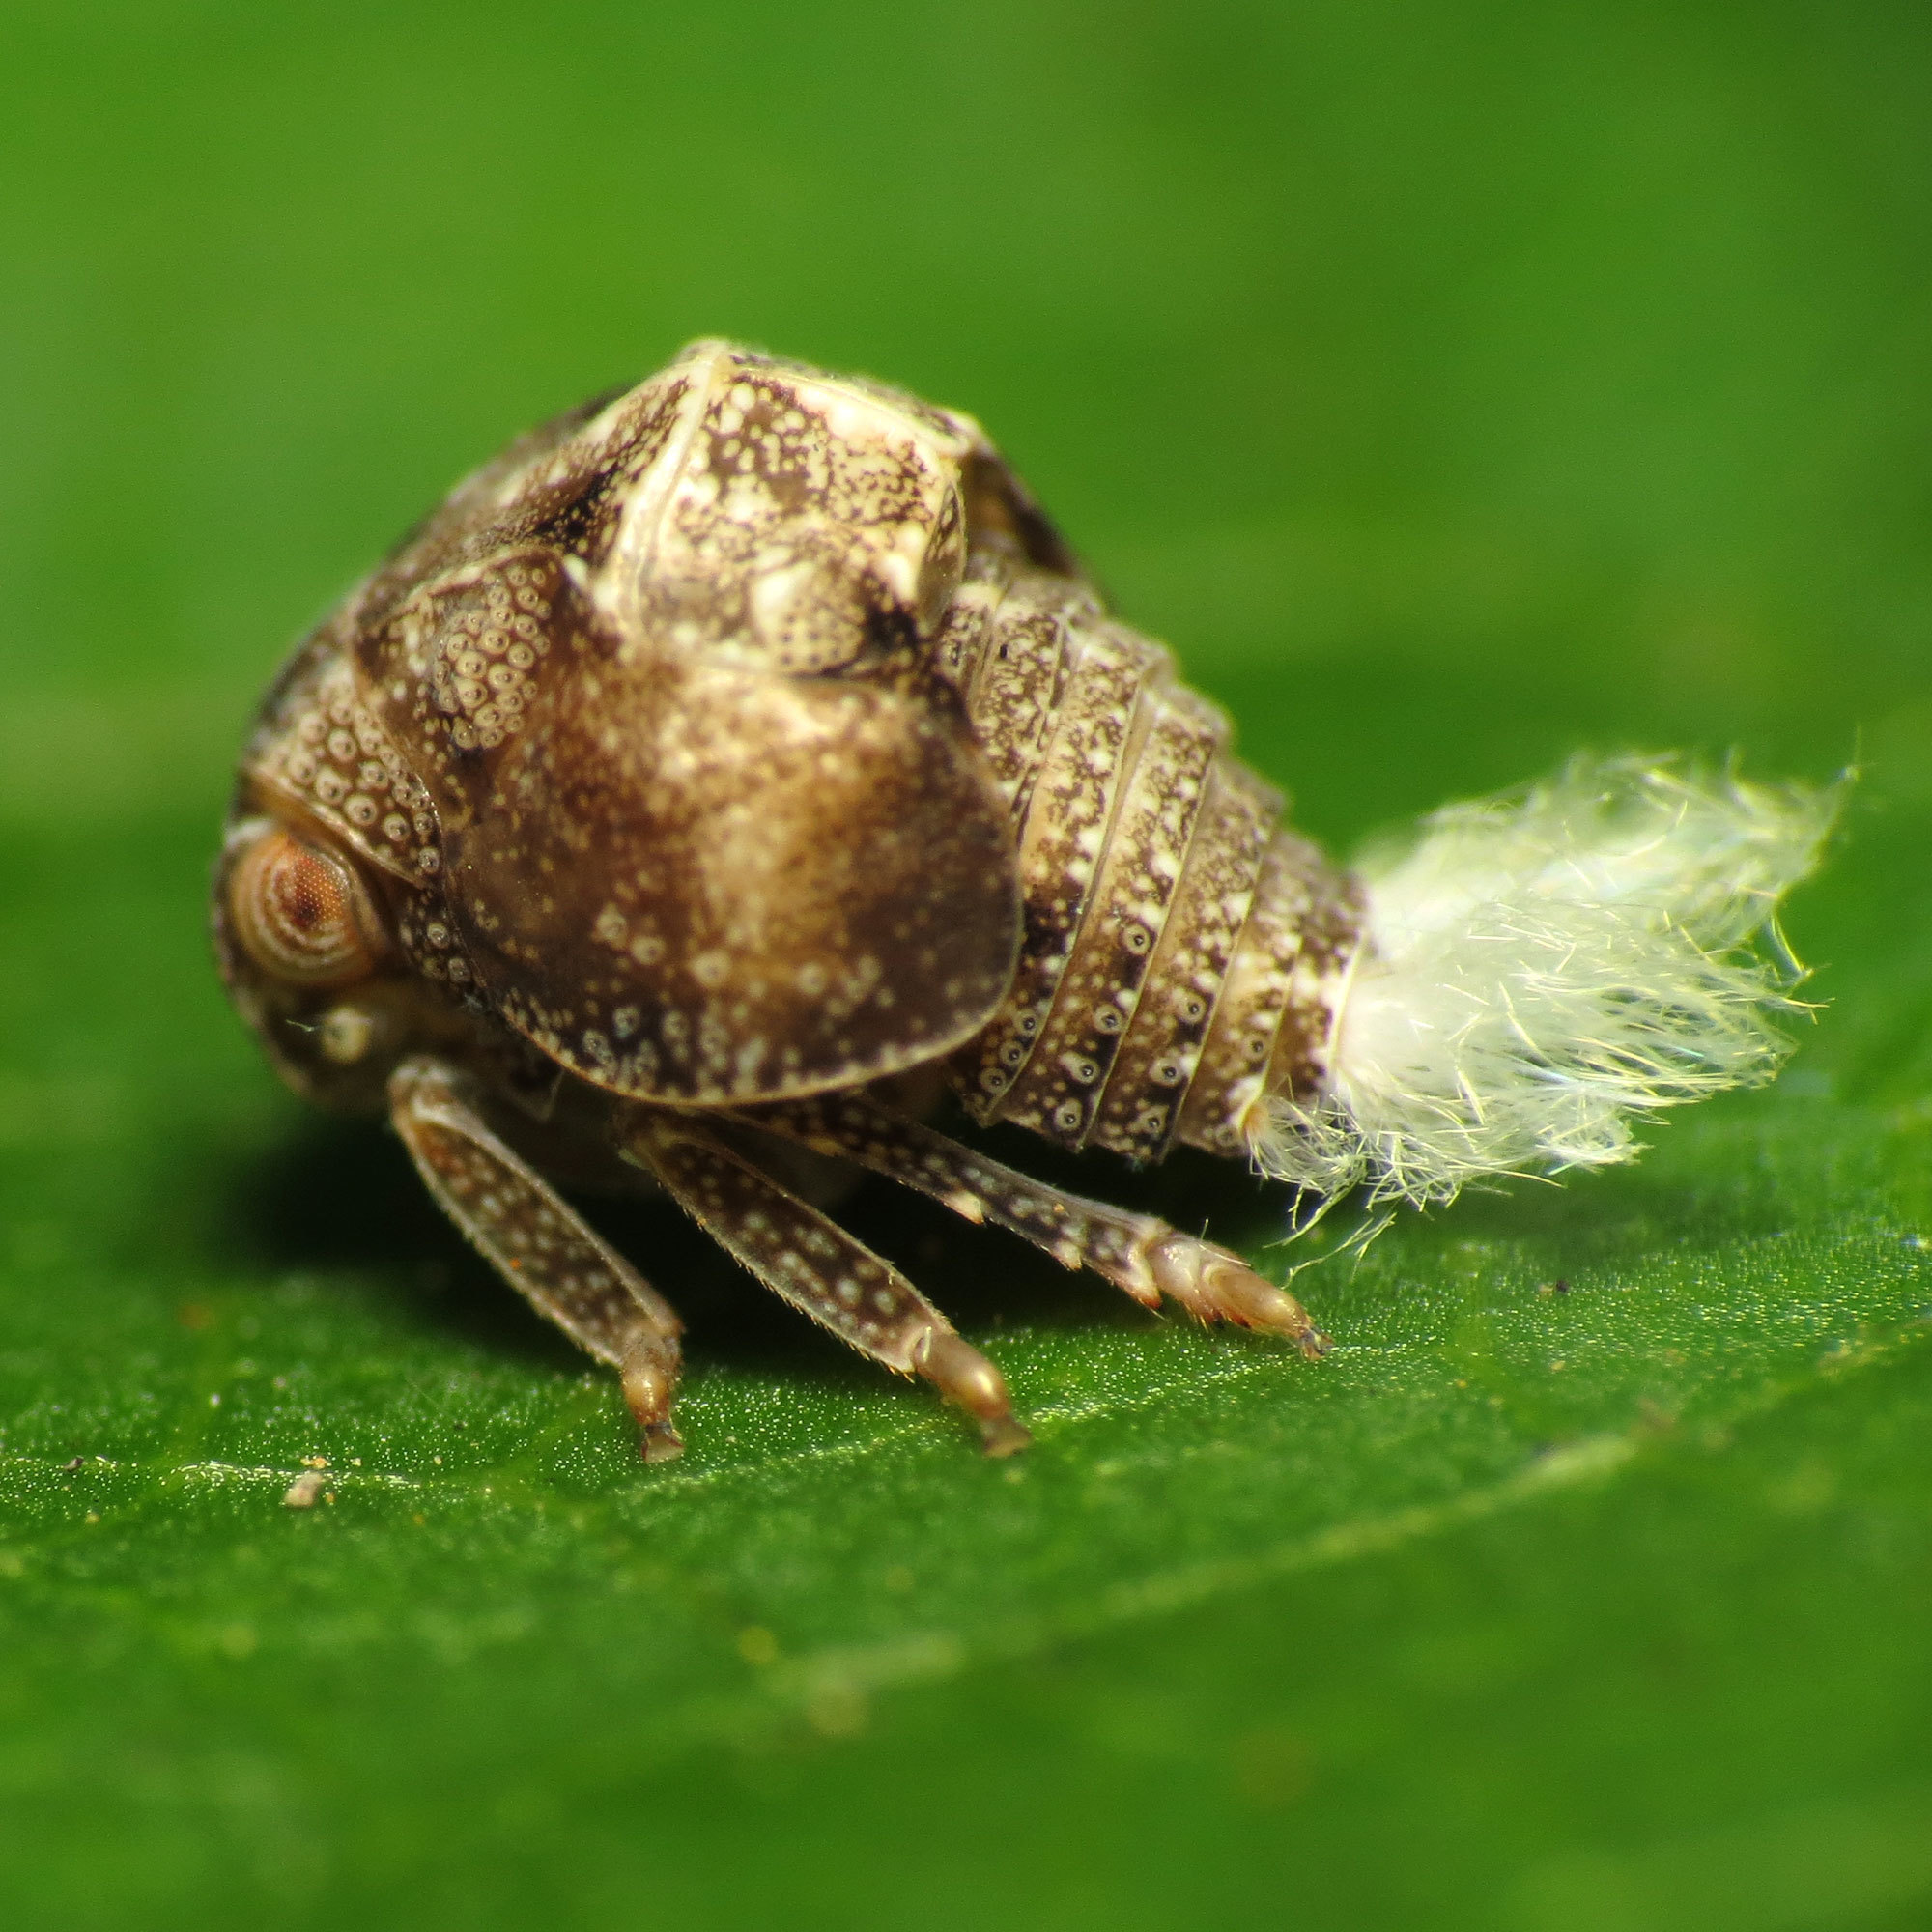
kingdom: Animalia
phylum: Arthropoda
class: Insecta
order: Hemiptera
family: Acanaloniidae
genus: Acanalonia
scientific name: Acanalonia bivittata
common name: Two-striped planthopper
